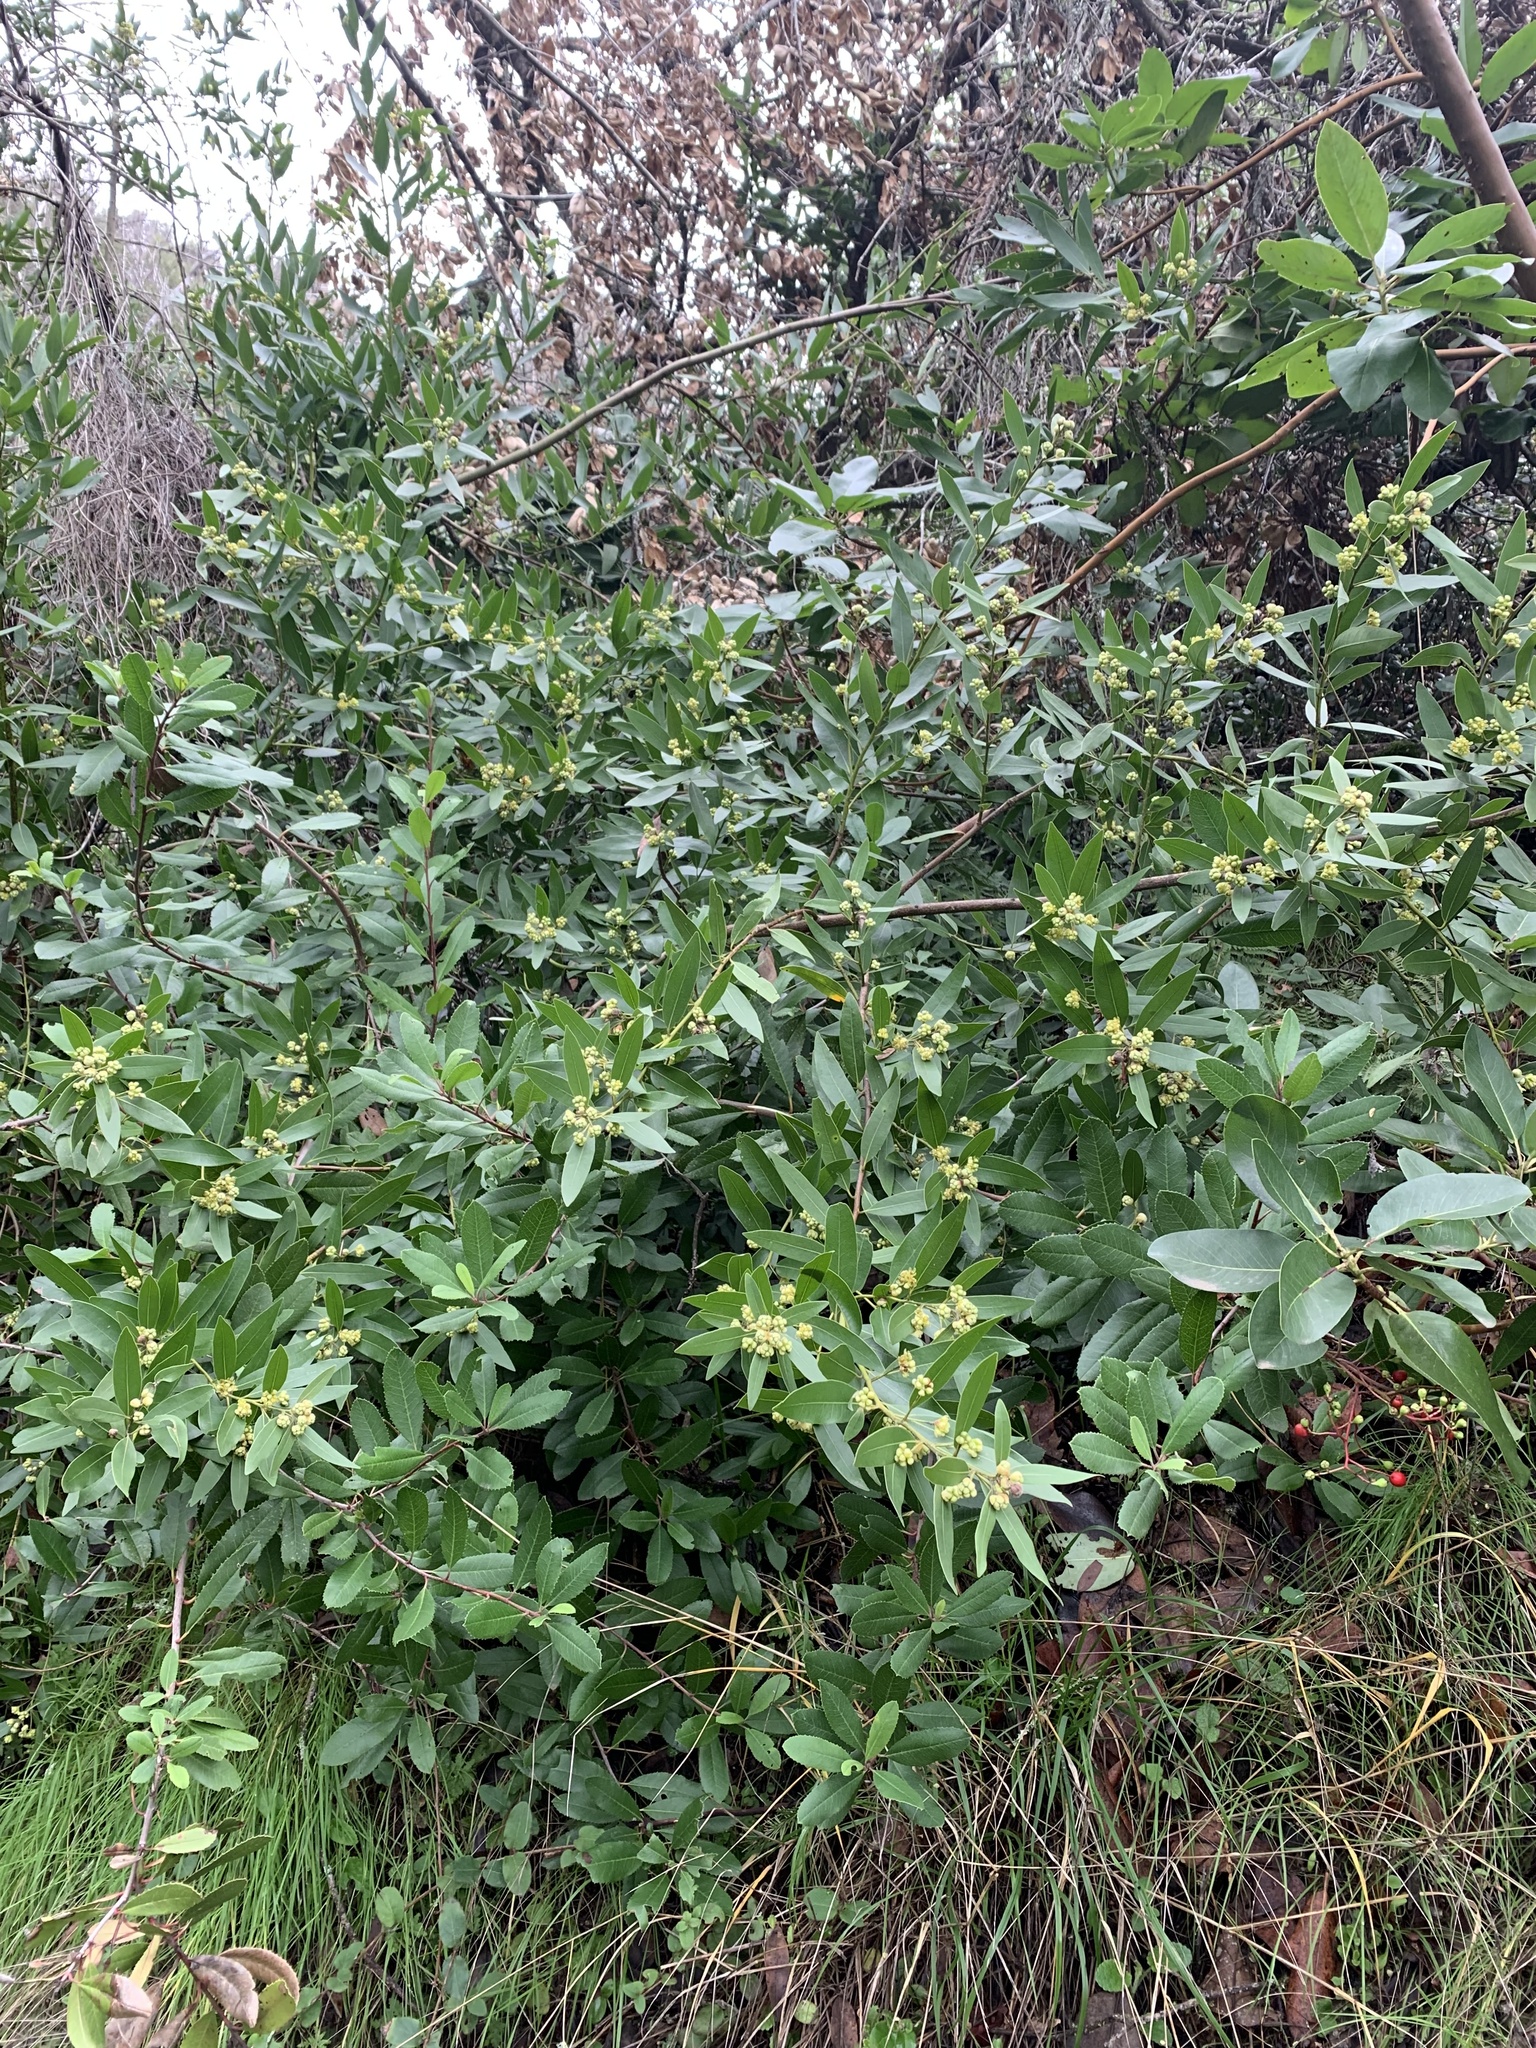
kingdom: Plantae
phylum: Tracheophyta
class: Magnoliopsida
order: Laurales
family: Lauraceae
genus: Umbellularia
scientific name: Umbellularia californica
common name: California bay
